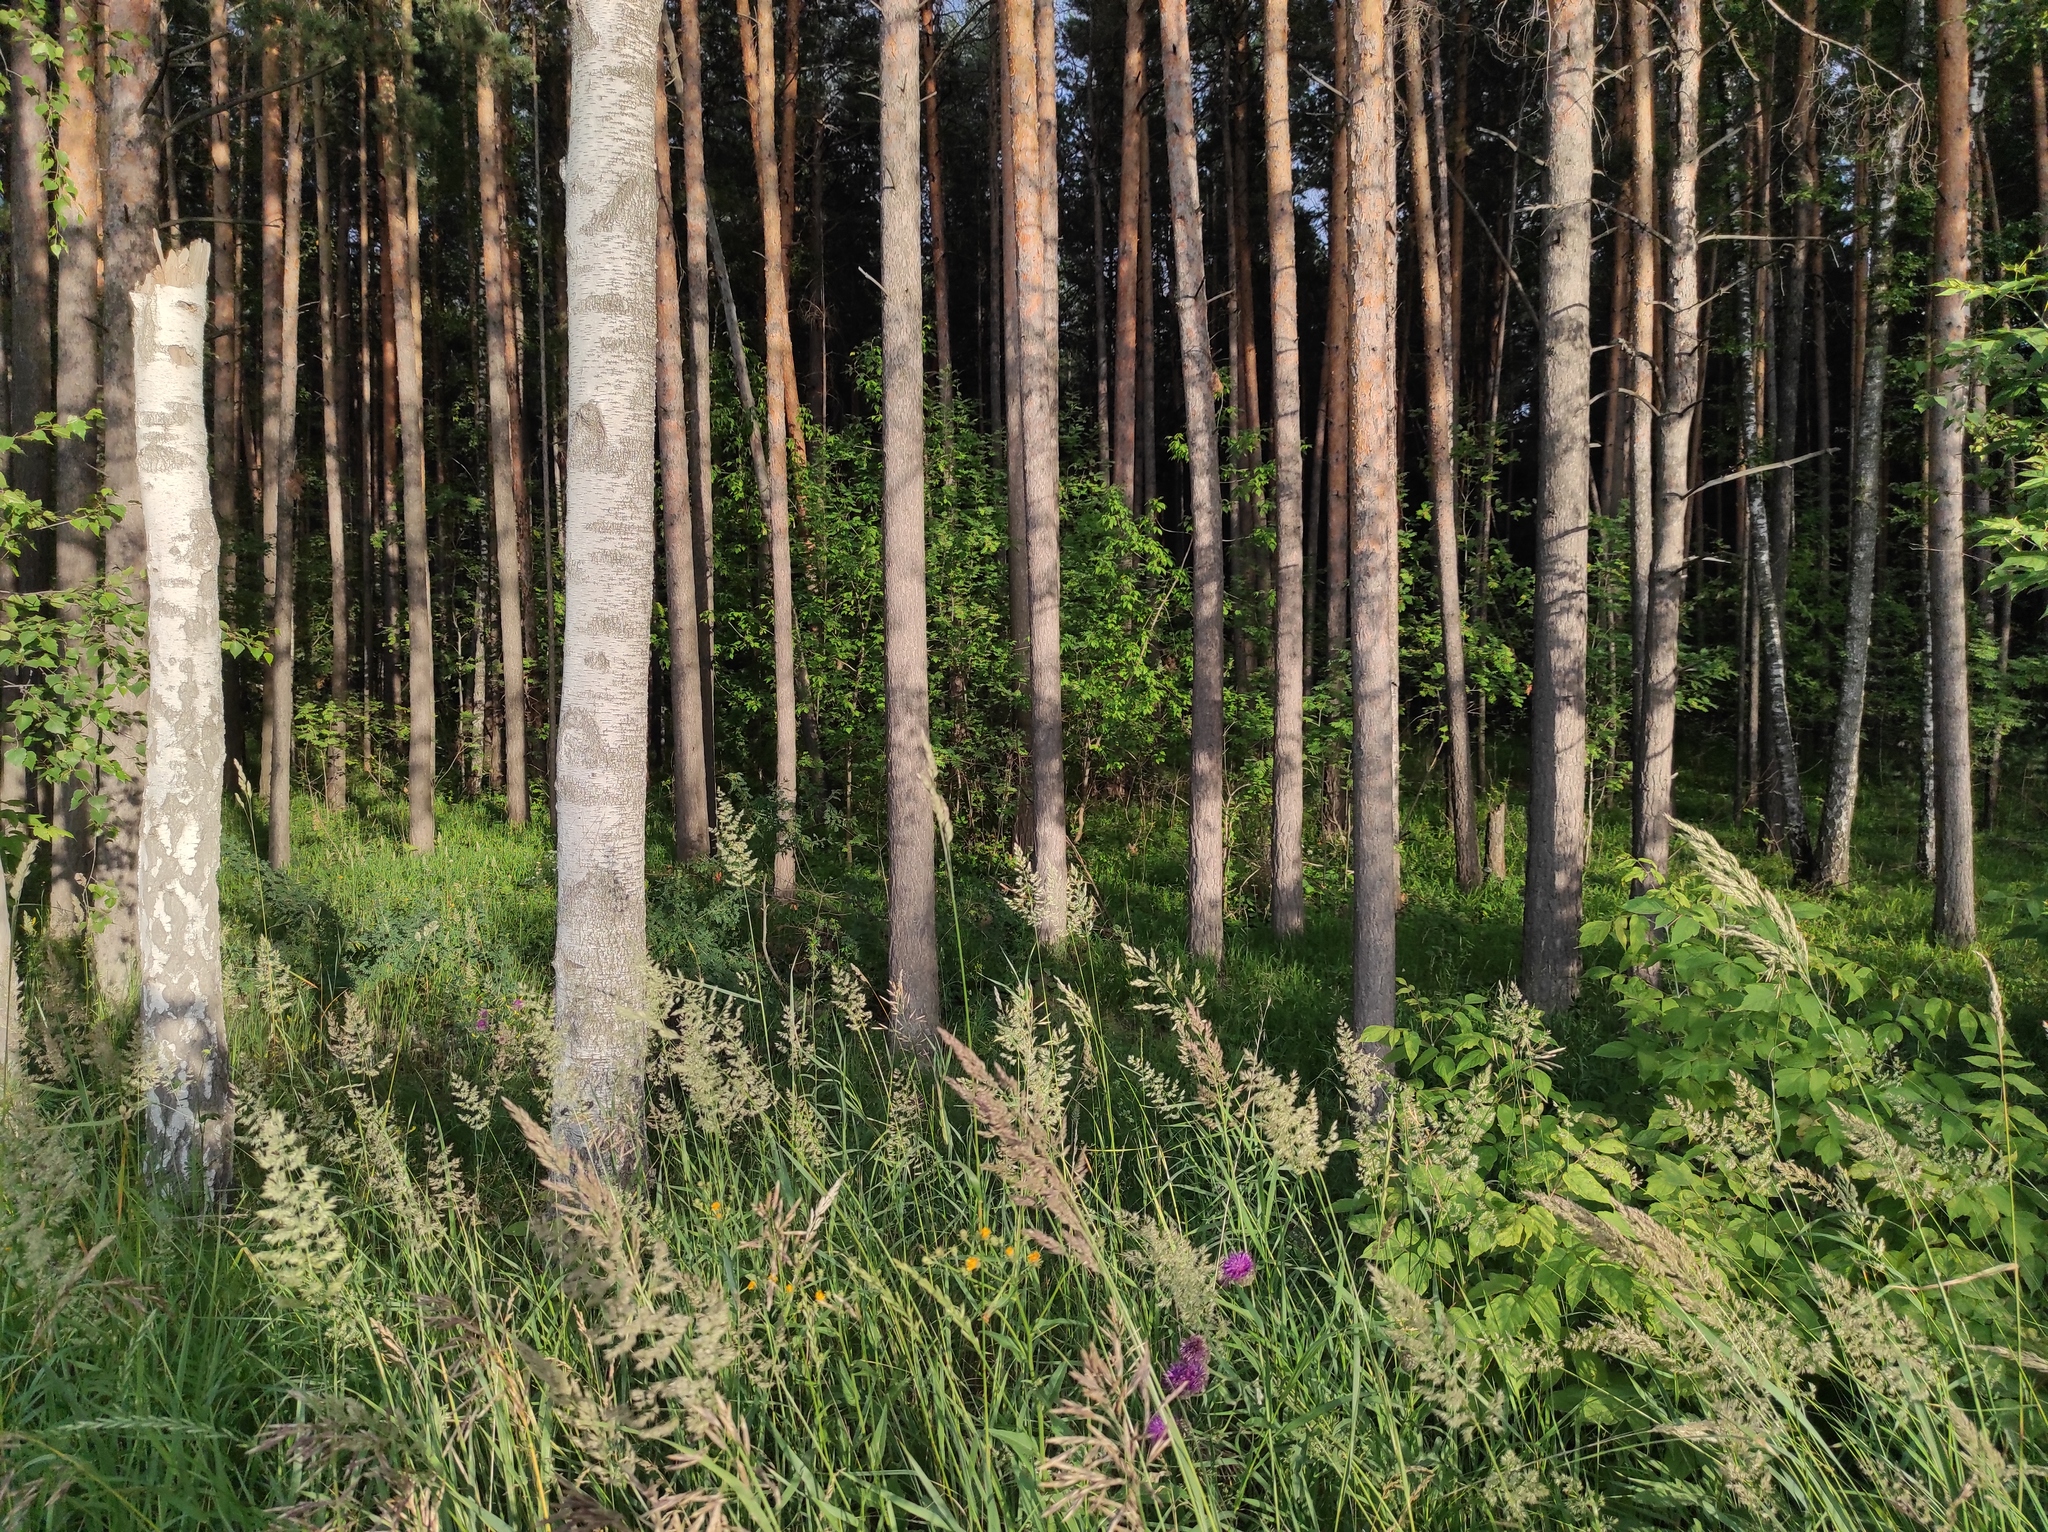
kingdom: Plantae
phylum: Tracheophyta
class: Pinopsida
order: Pinales
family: Pinaceae
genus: Pinus
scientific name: Pinus sylvestris
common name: Scots pine
